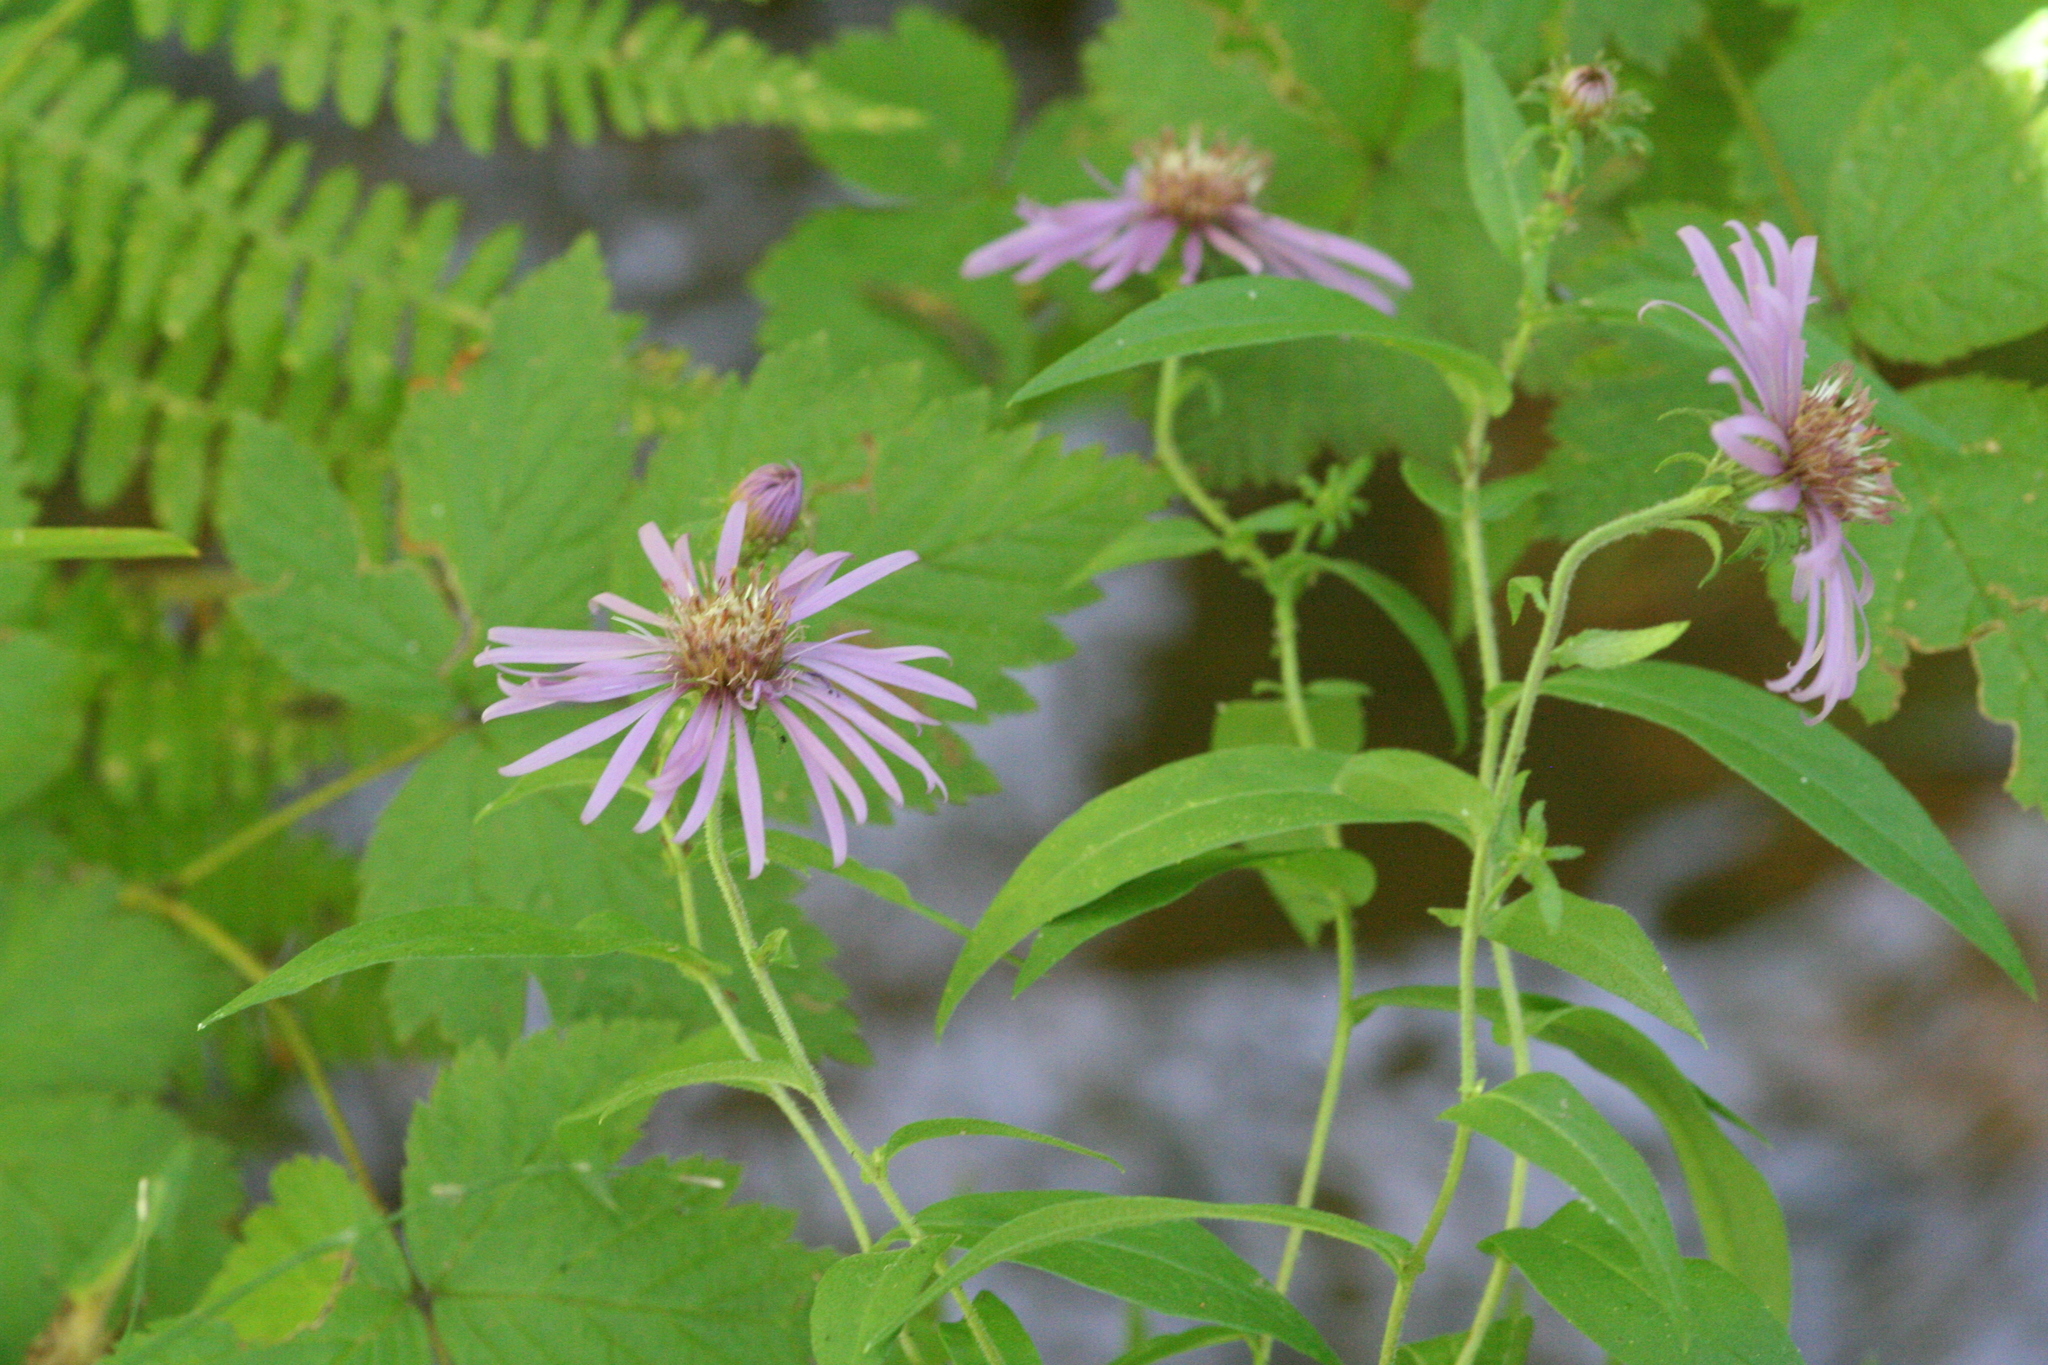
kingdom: Plantae
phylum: Tracheophyta
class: Magnoliopsida
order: Asterales
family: Asteraceae
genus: Canadanthus
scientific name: Canadanthus modestus
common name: Great northern aster
